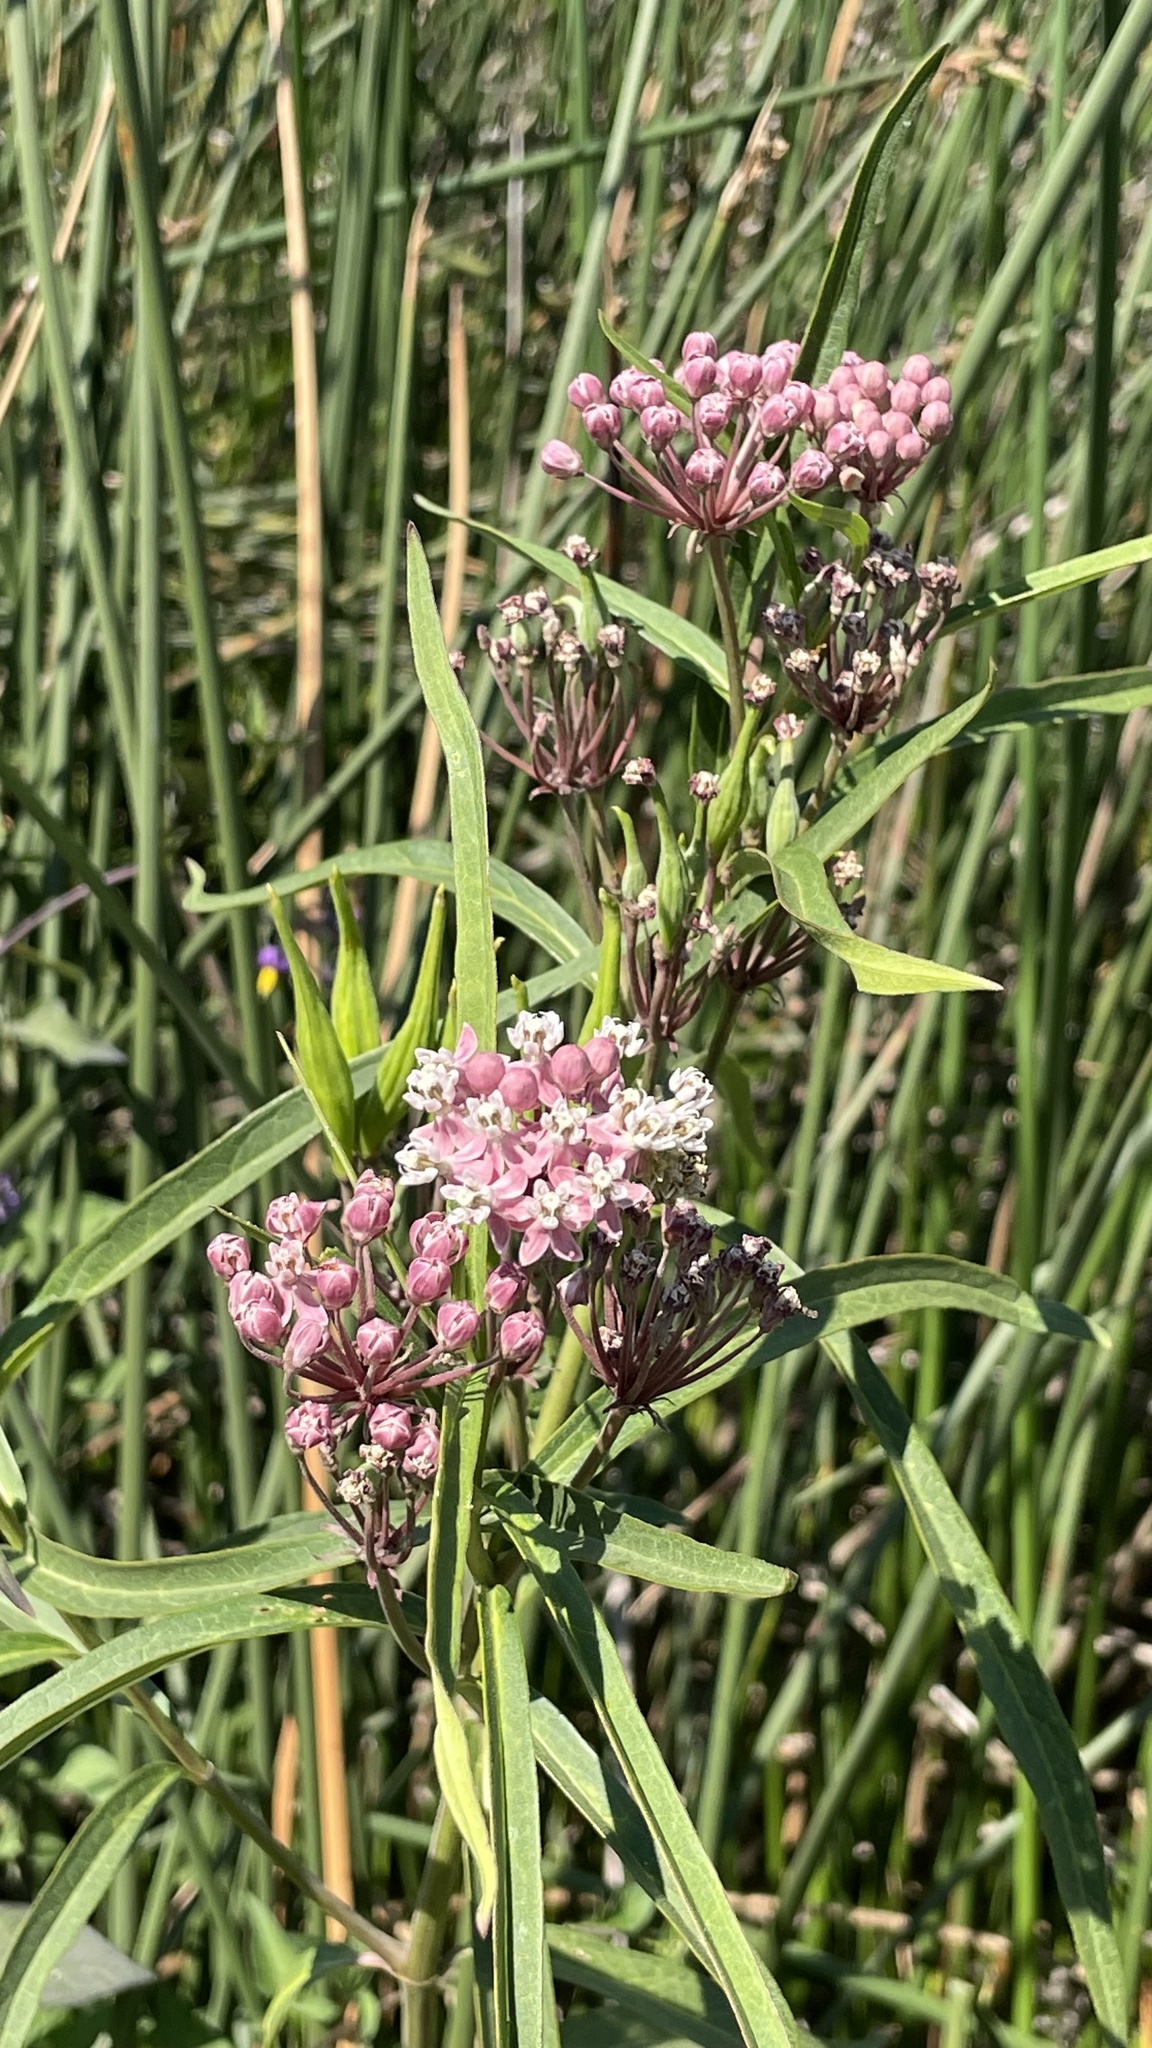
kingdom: Plantae
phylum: Tracheophyta
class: Magnoliopsida
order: Gentianales
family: Apocynaceae
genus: Asclepias
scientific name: Asclepias incarnata
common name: Swamp milkweed
